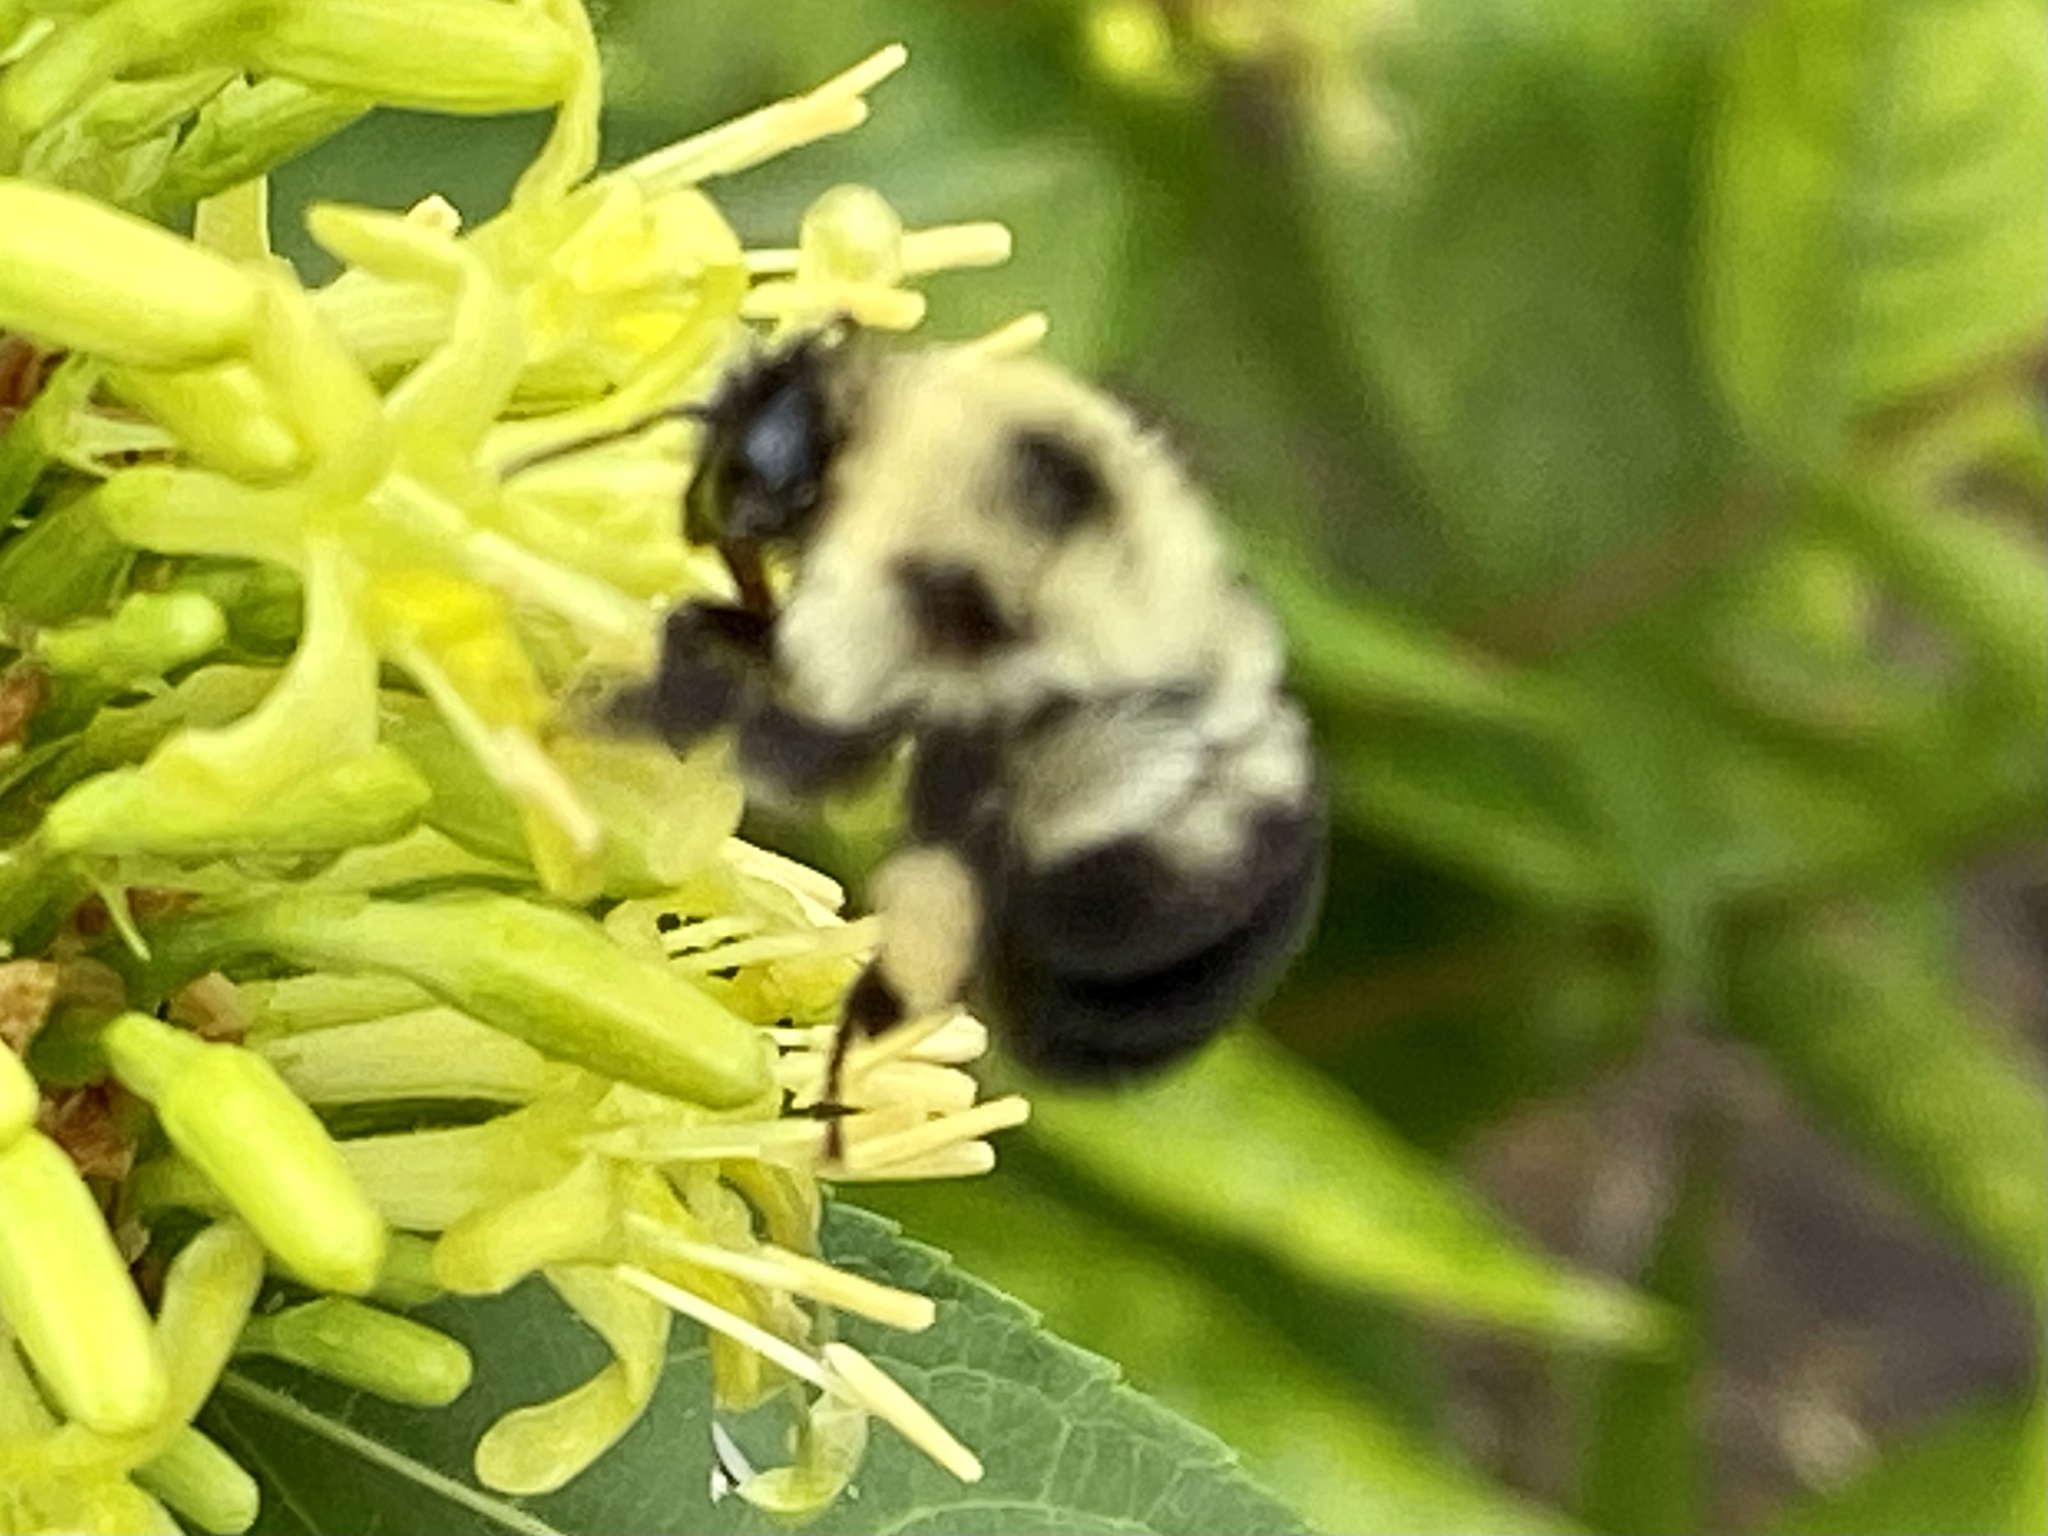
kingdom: Animalia
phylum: Arthropoda
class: Insecta
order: Hymenoptera
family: Apidae
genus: Bombus
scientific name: Bombus bimaculatus
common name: Two-spotted bumble bee
